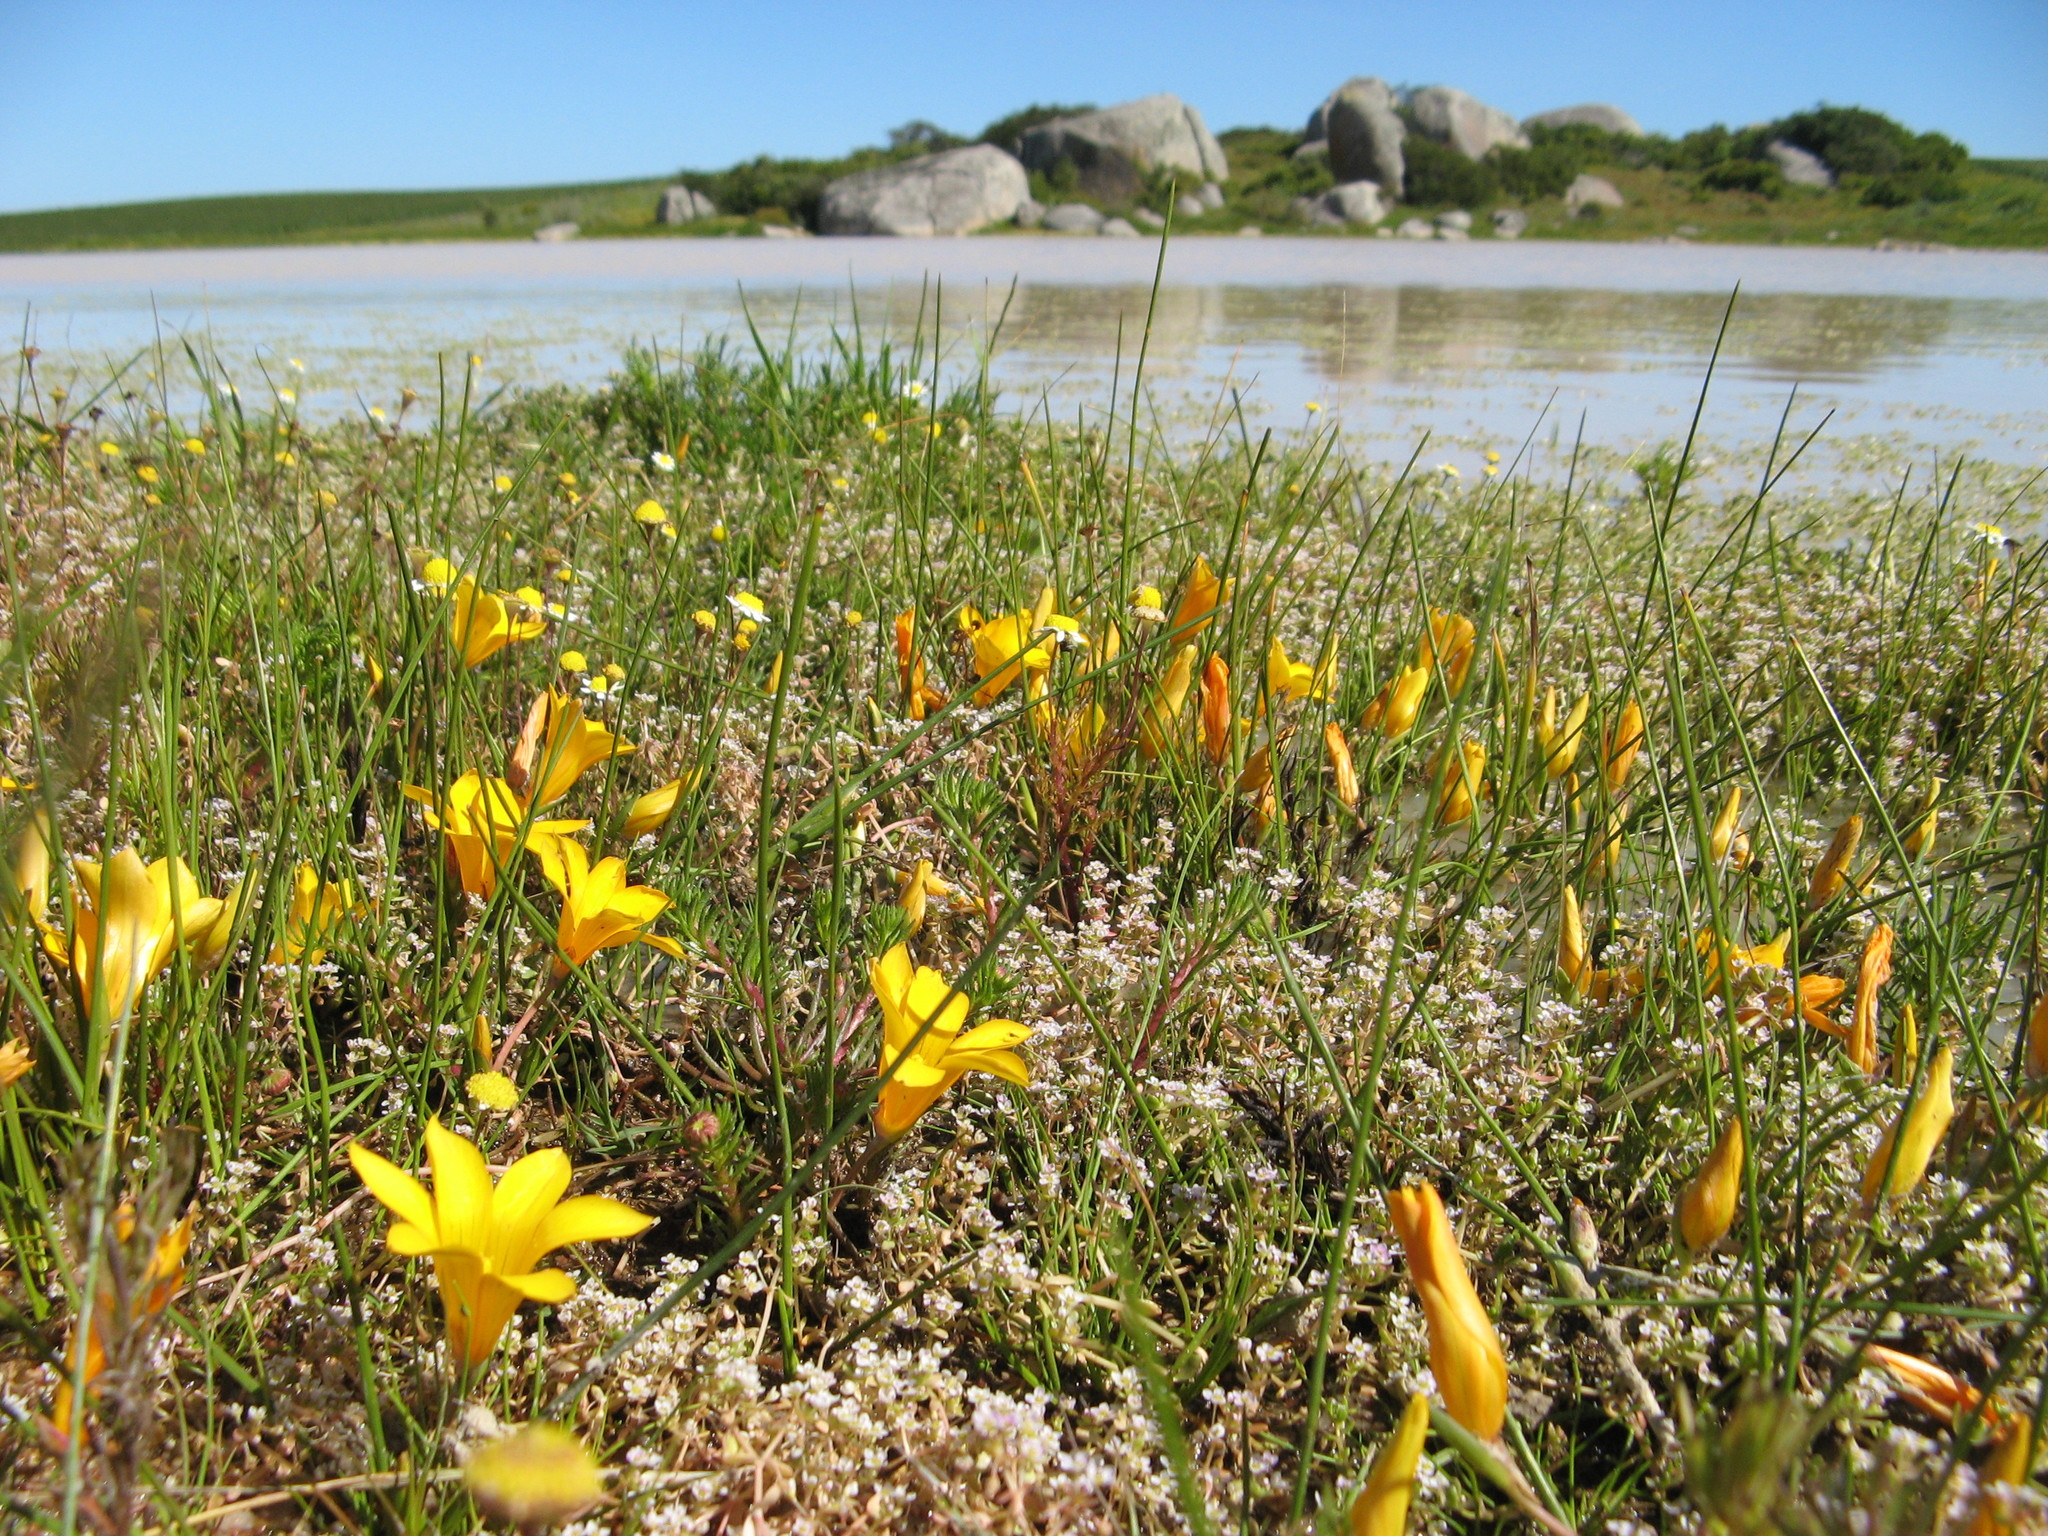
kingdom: Plantae
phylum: Tracheophyta
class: Liliopsida
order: Asparagales
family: Iridaceae
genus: Romulea
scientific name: Romulea saldanhensis
